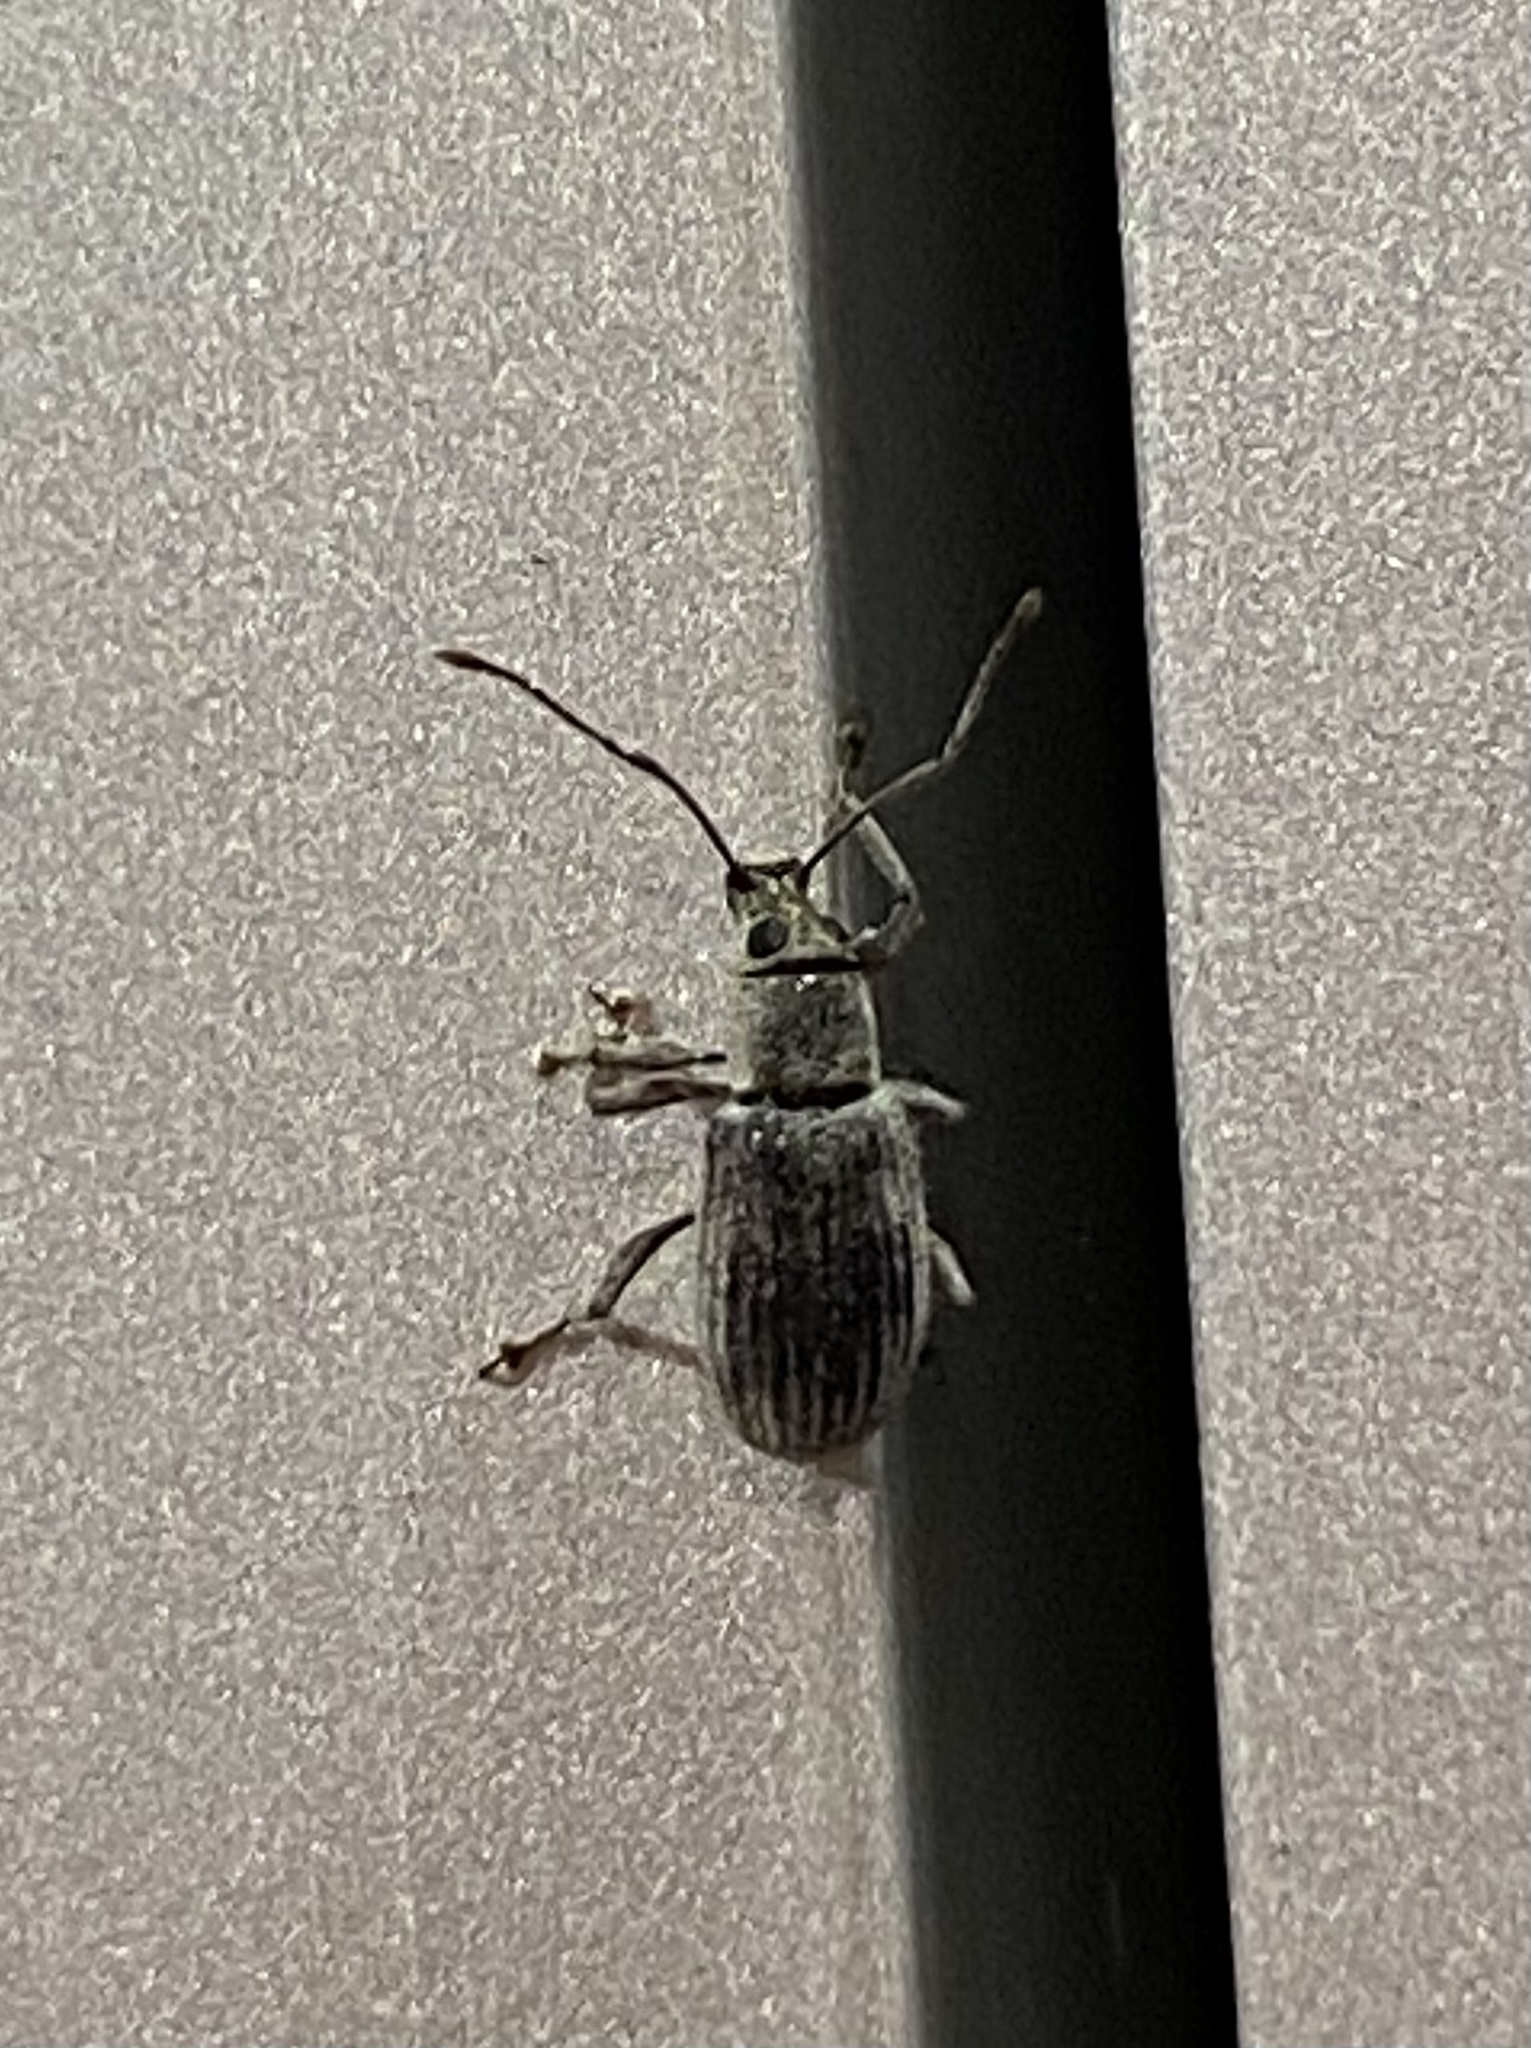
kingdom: Animalia
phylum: Arthropoda
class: Insecta
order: Coleoptera
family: Curculionidae
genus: Cyrtepistomus
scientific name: Cyrtepistomus castaneus
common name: Weevil
